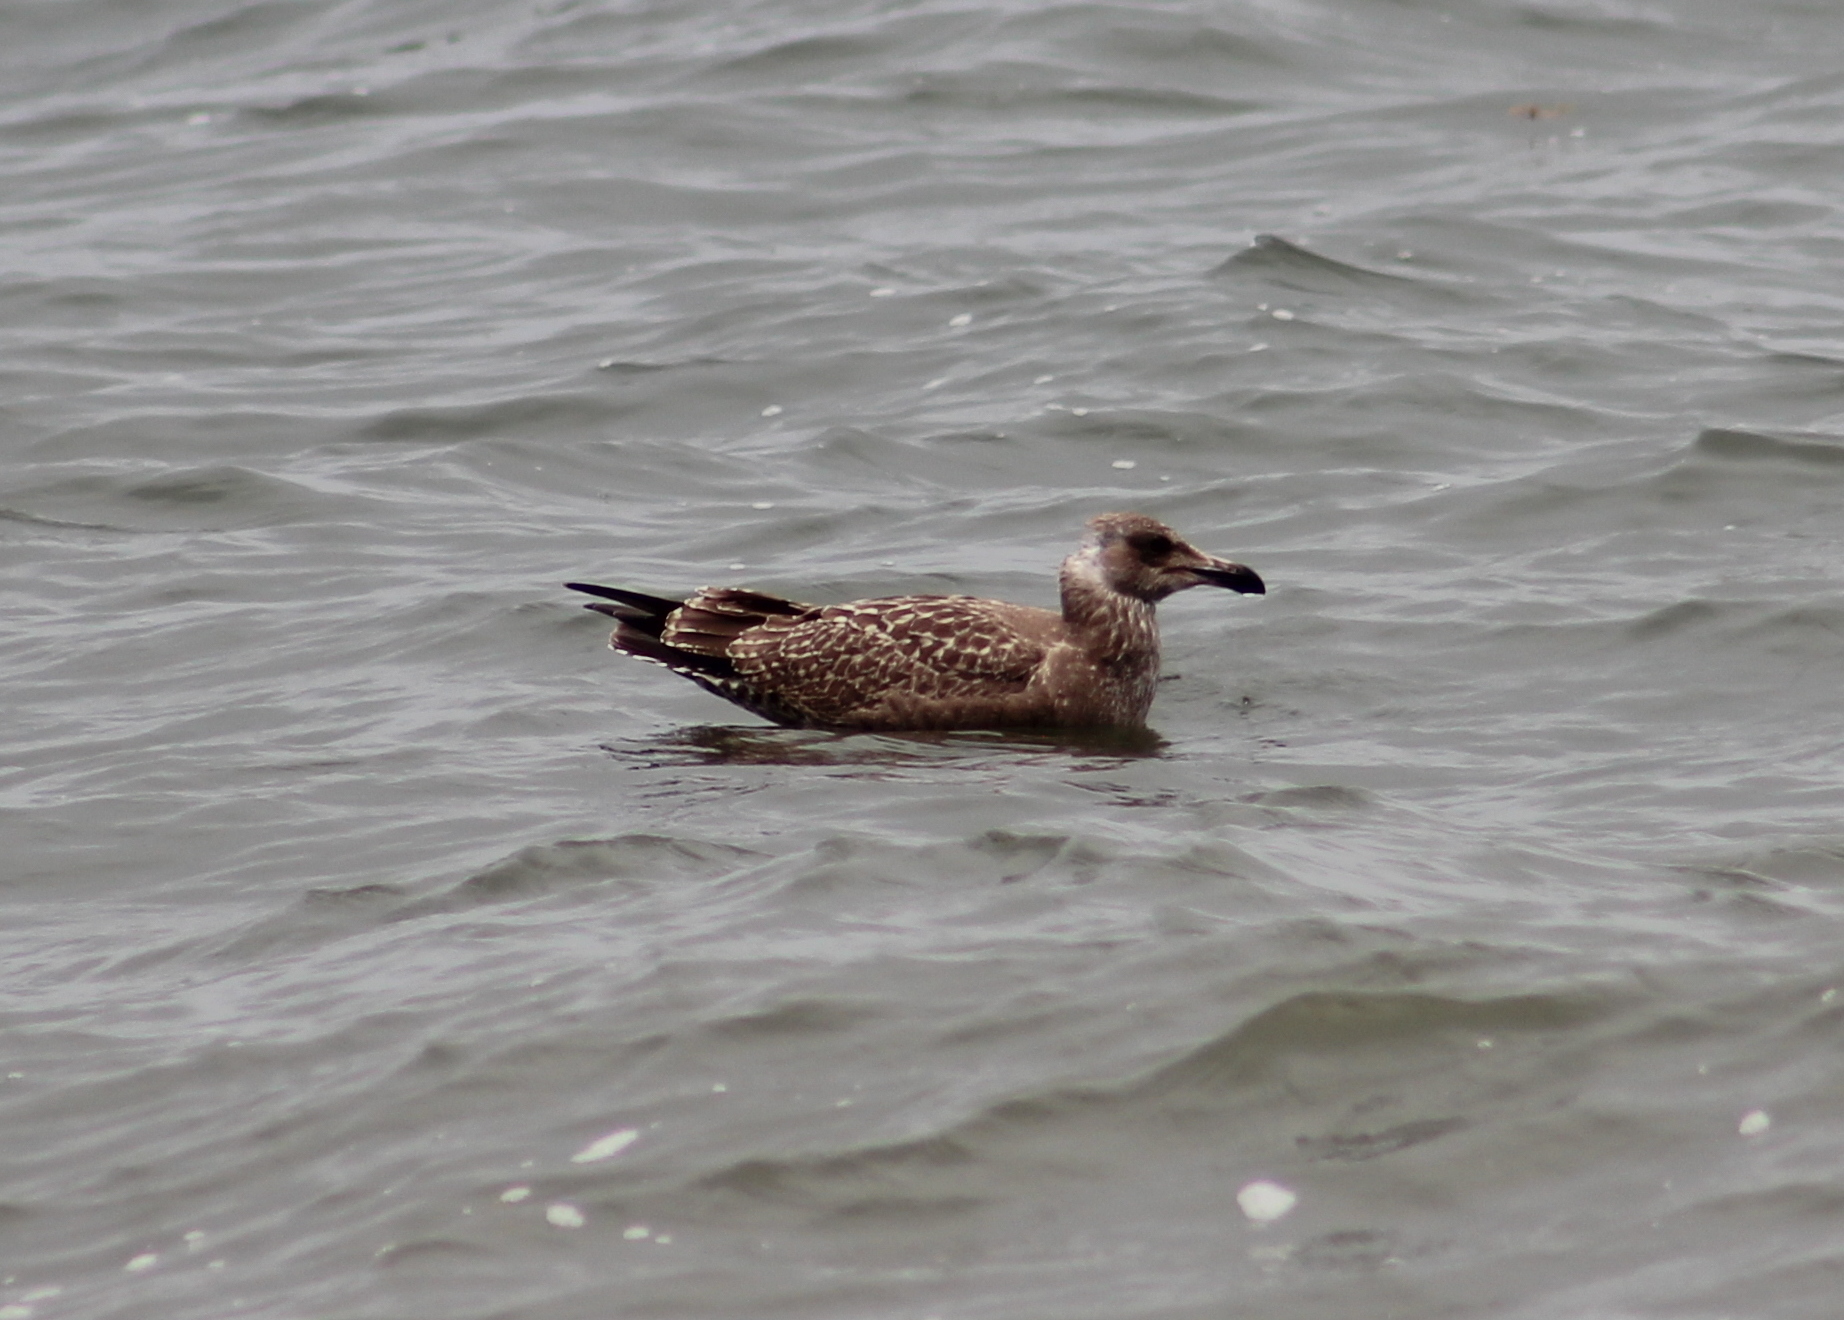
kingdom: Animalia
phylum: Chordata
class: Aves
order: Charadriiformes
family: Laridae
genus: Larus
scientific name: Larus argentatus
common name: Herring gull
